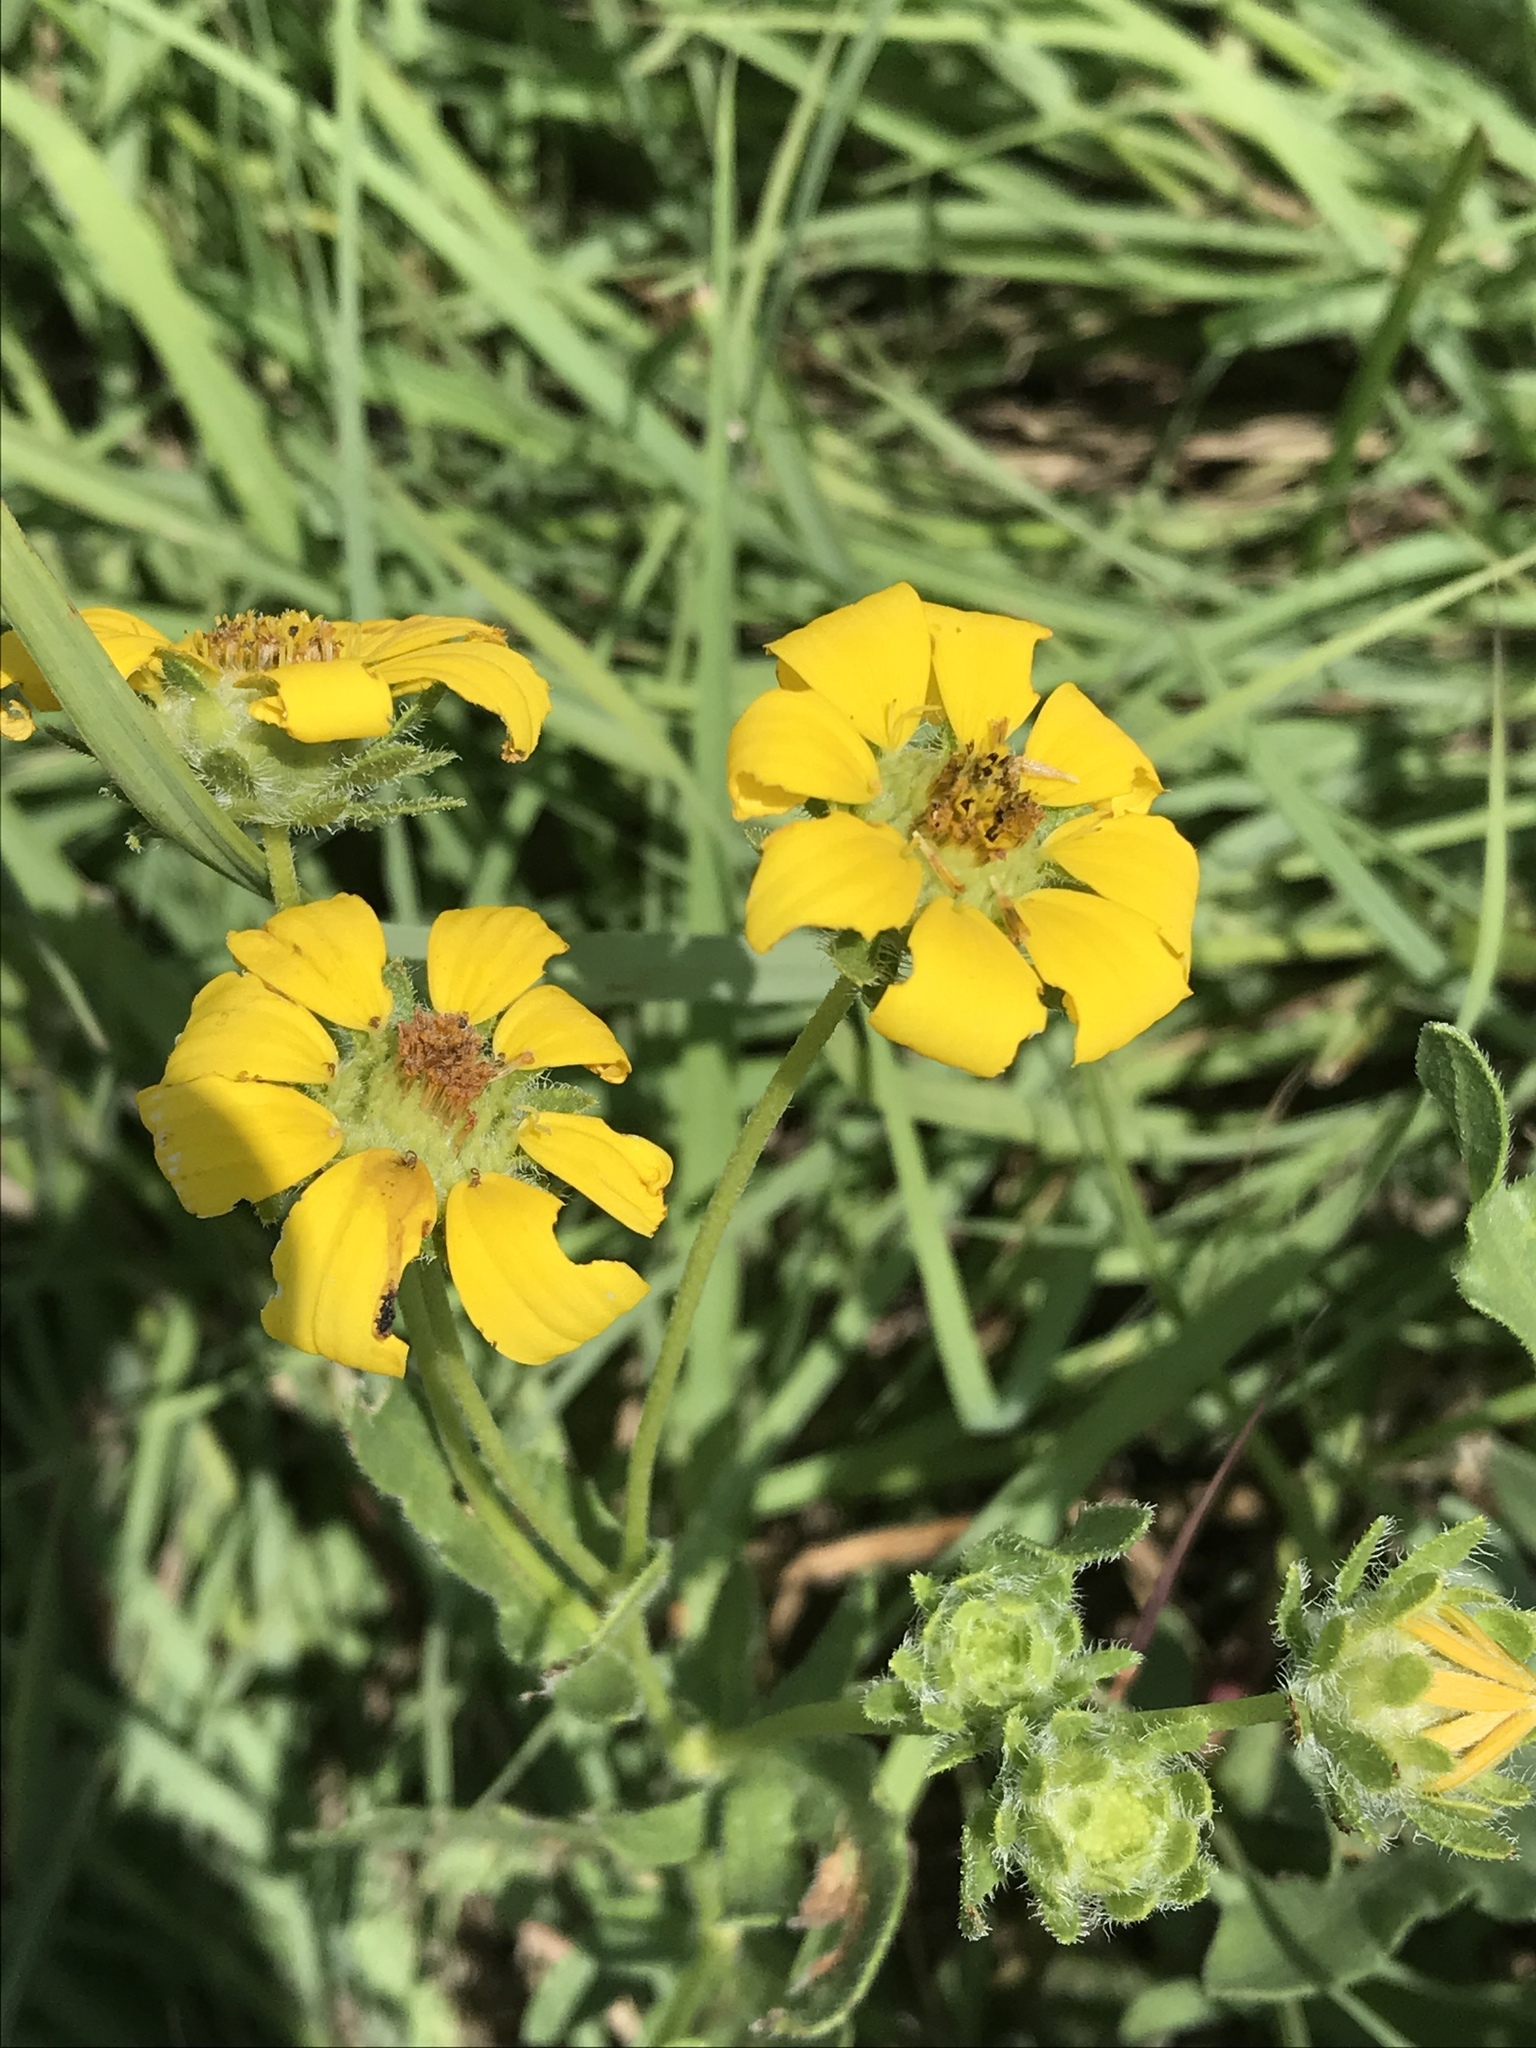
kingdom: Plantae
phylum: Tracheophyta
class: Magnoliopsida
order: Asterales
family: Asteraceae
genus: Engelmannia
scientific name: Engelmannia peristenia
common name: Engelmann's daisy
